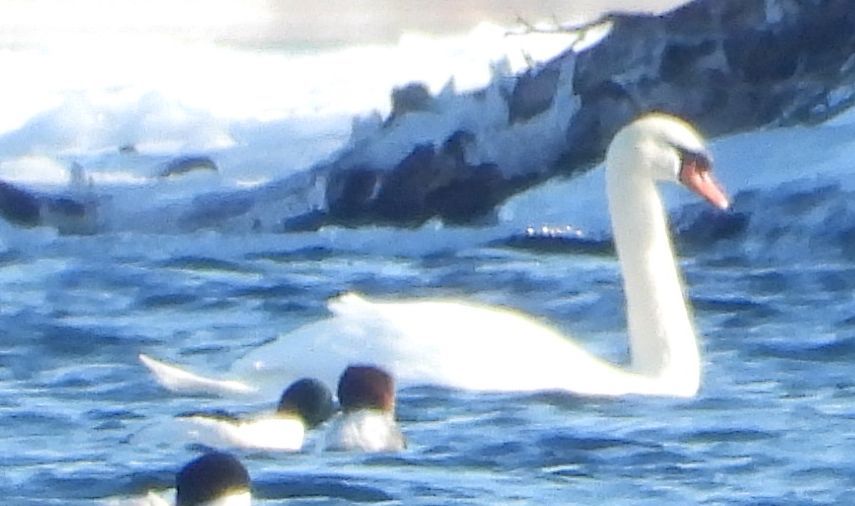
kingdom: Animalia
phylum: Chordata
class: Aves
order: Anseriformes
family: Anatidae
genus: Cygnus
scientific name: Cygnus olor
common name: Mute swan
